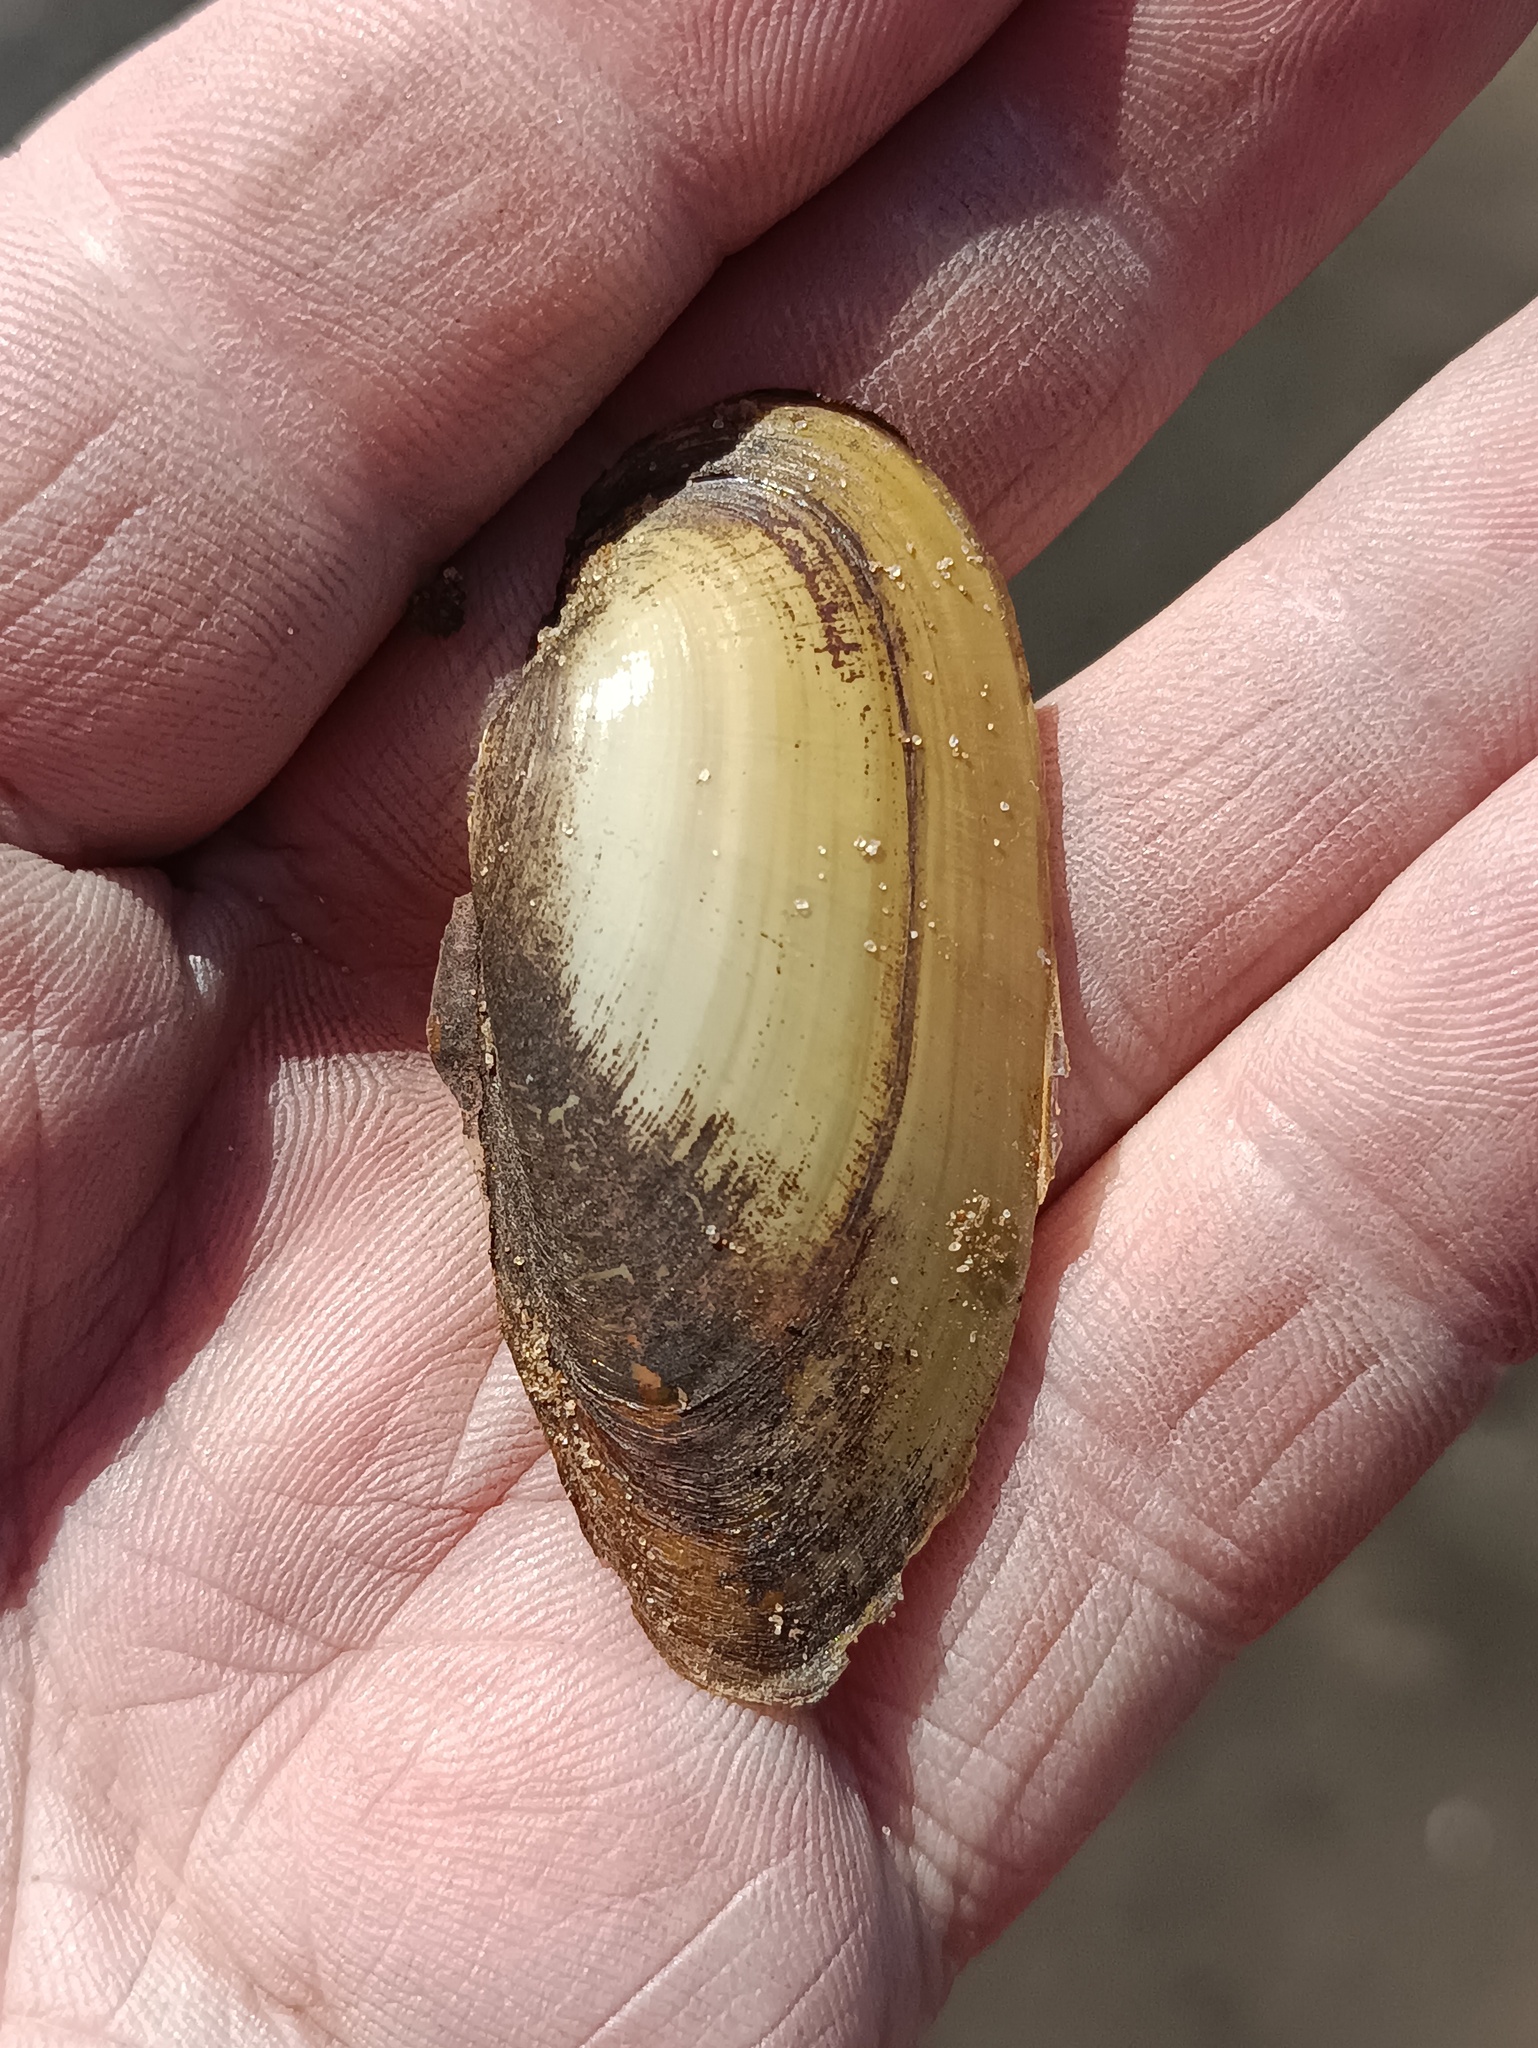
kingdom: Animalia
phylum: Mollusca
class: Bivalvia
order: Unionida
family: Unionidae
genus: Unio
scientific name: Unio pictorum
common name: Painter's mussel
